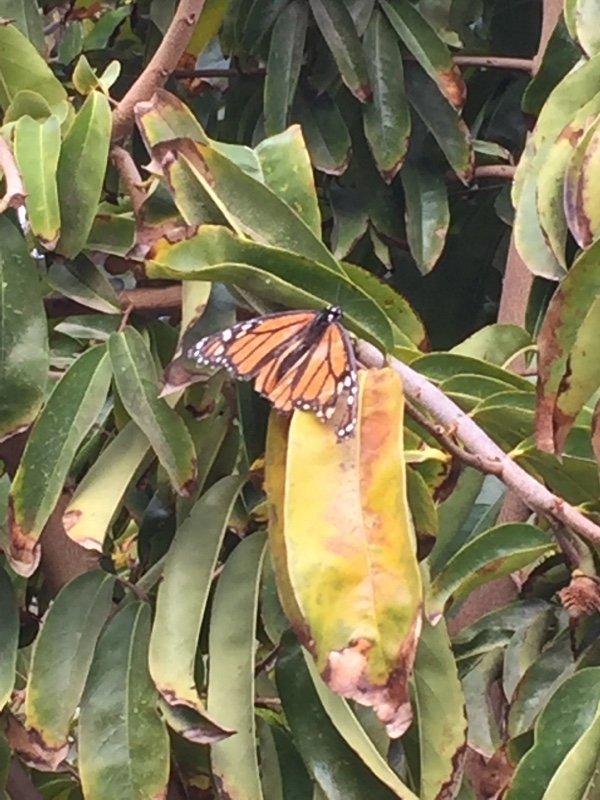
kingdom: Animalia
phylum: Arthropoda
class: Insecta
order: Lepidoptera
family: Nymphalidae
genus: Danaus
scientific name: Danaus plexippus
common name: Monarch
